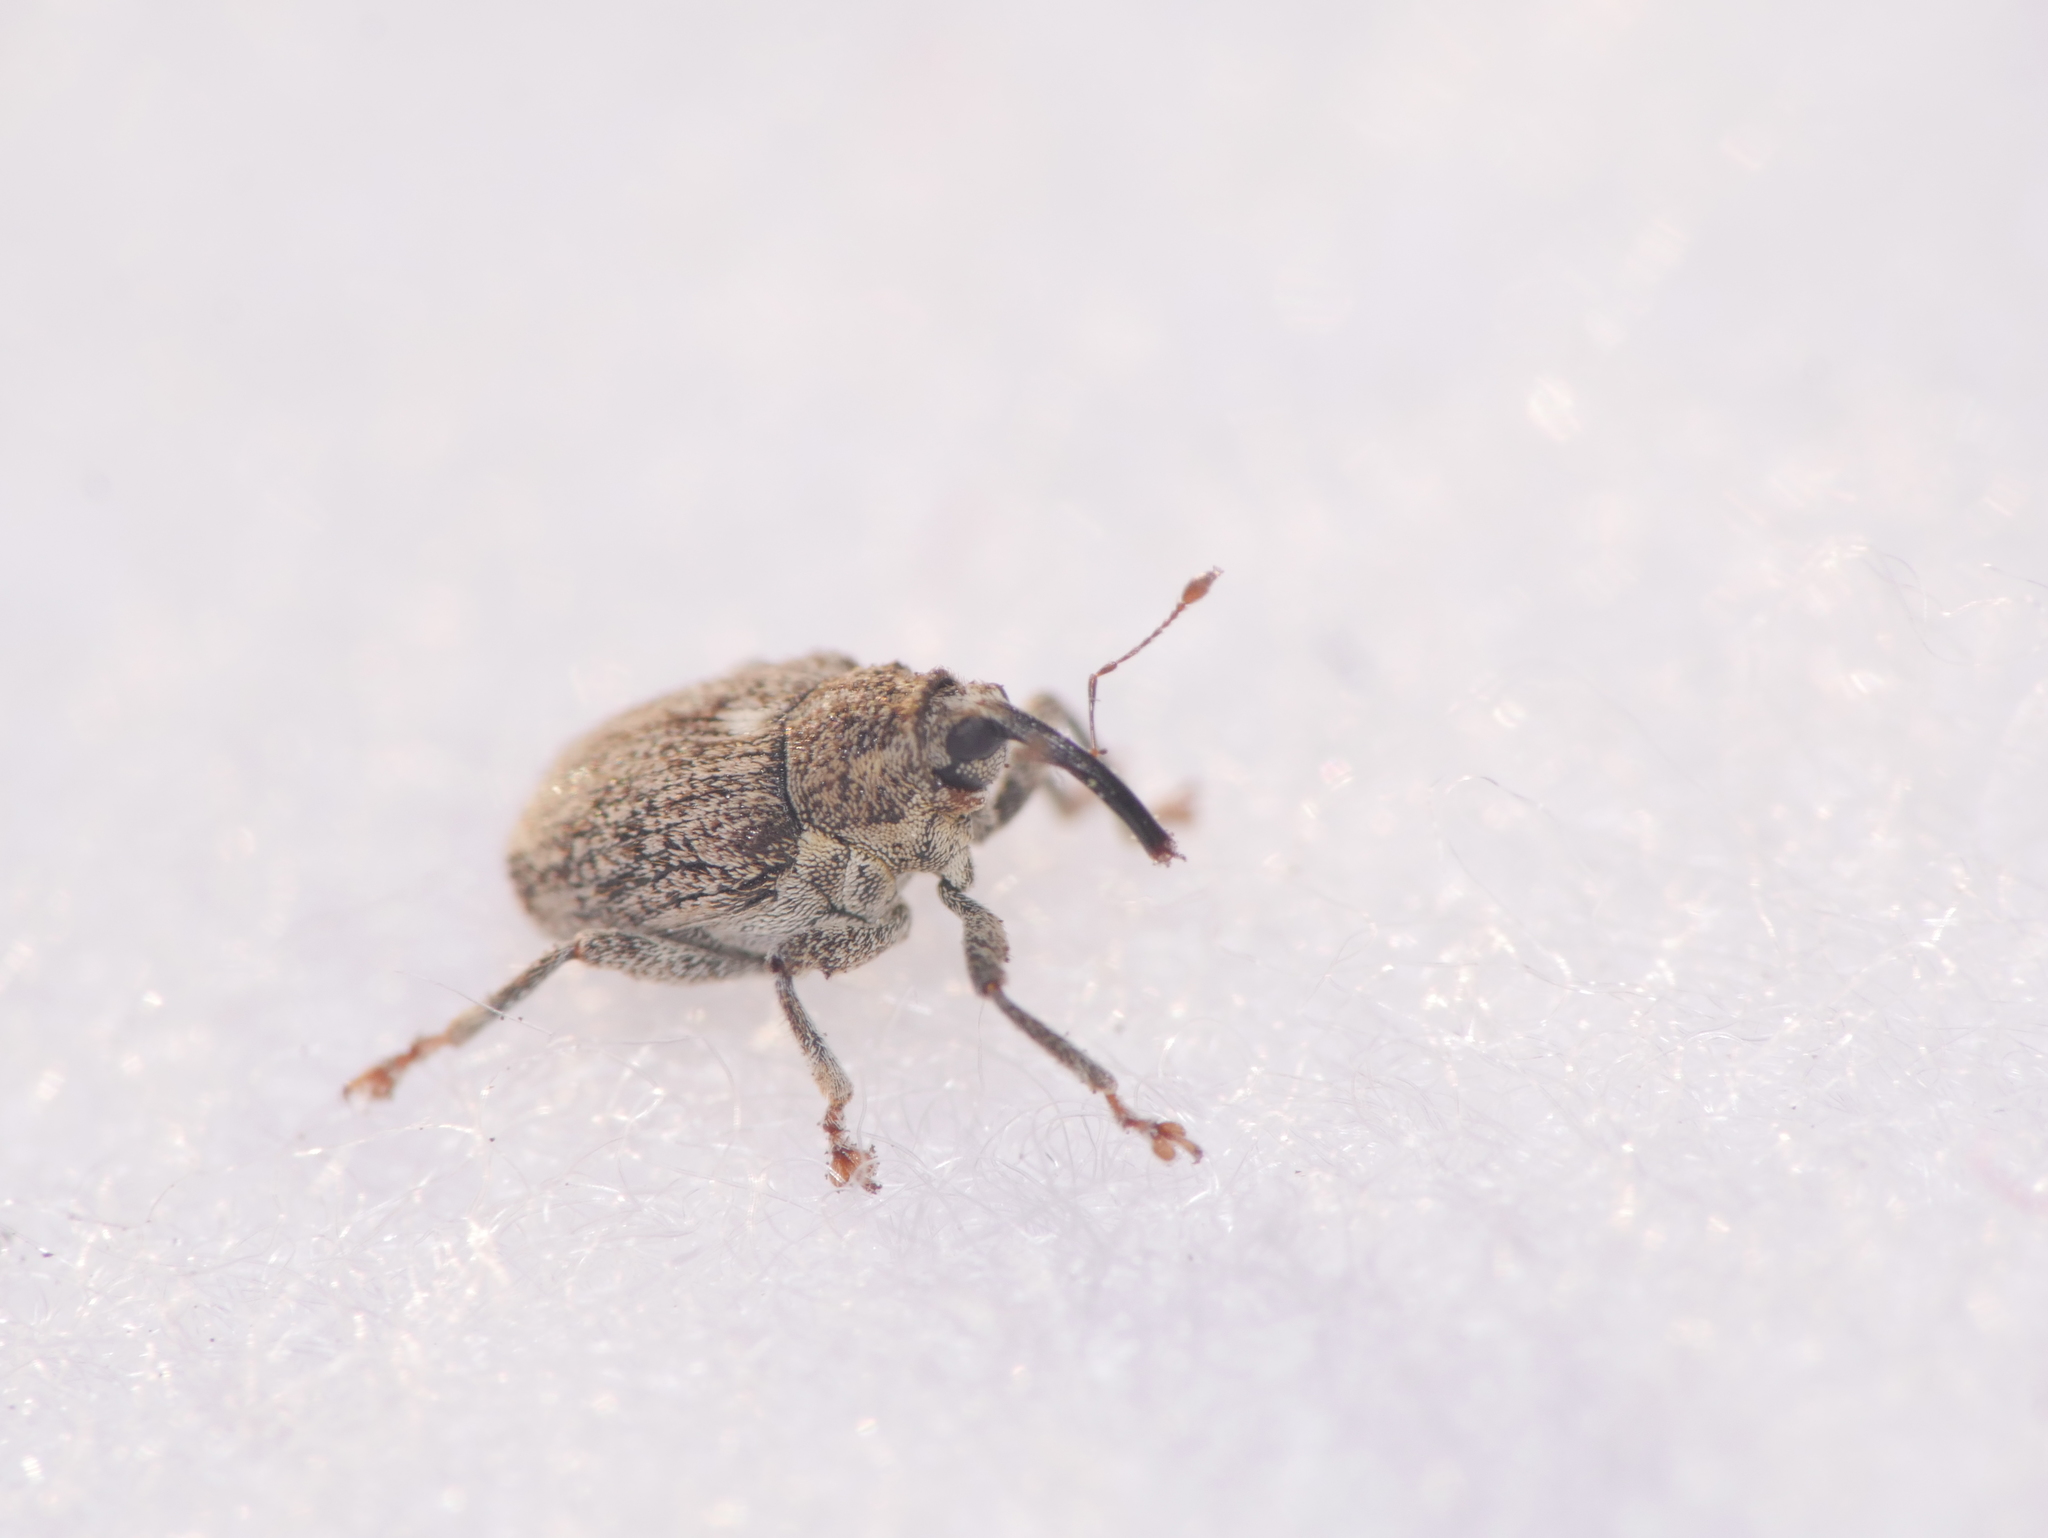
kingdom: Animalia
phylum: Arthropoda
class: Insecta
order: Coleoptera
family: Curculionidae
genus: Ceutorhynchus
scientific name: Ceutorhynchus pallidactylus
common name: Cabbage stem weavil
